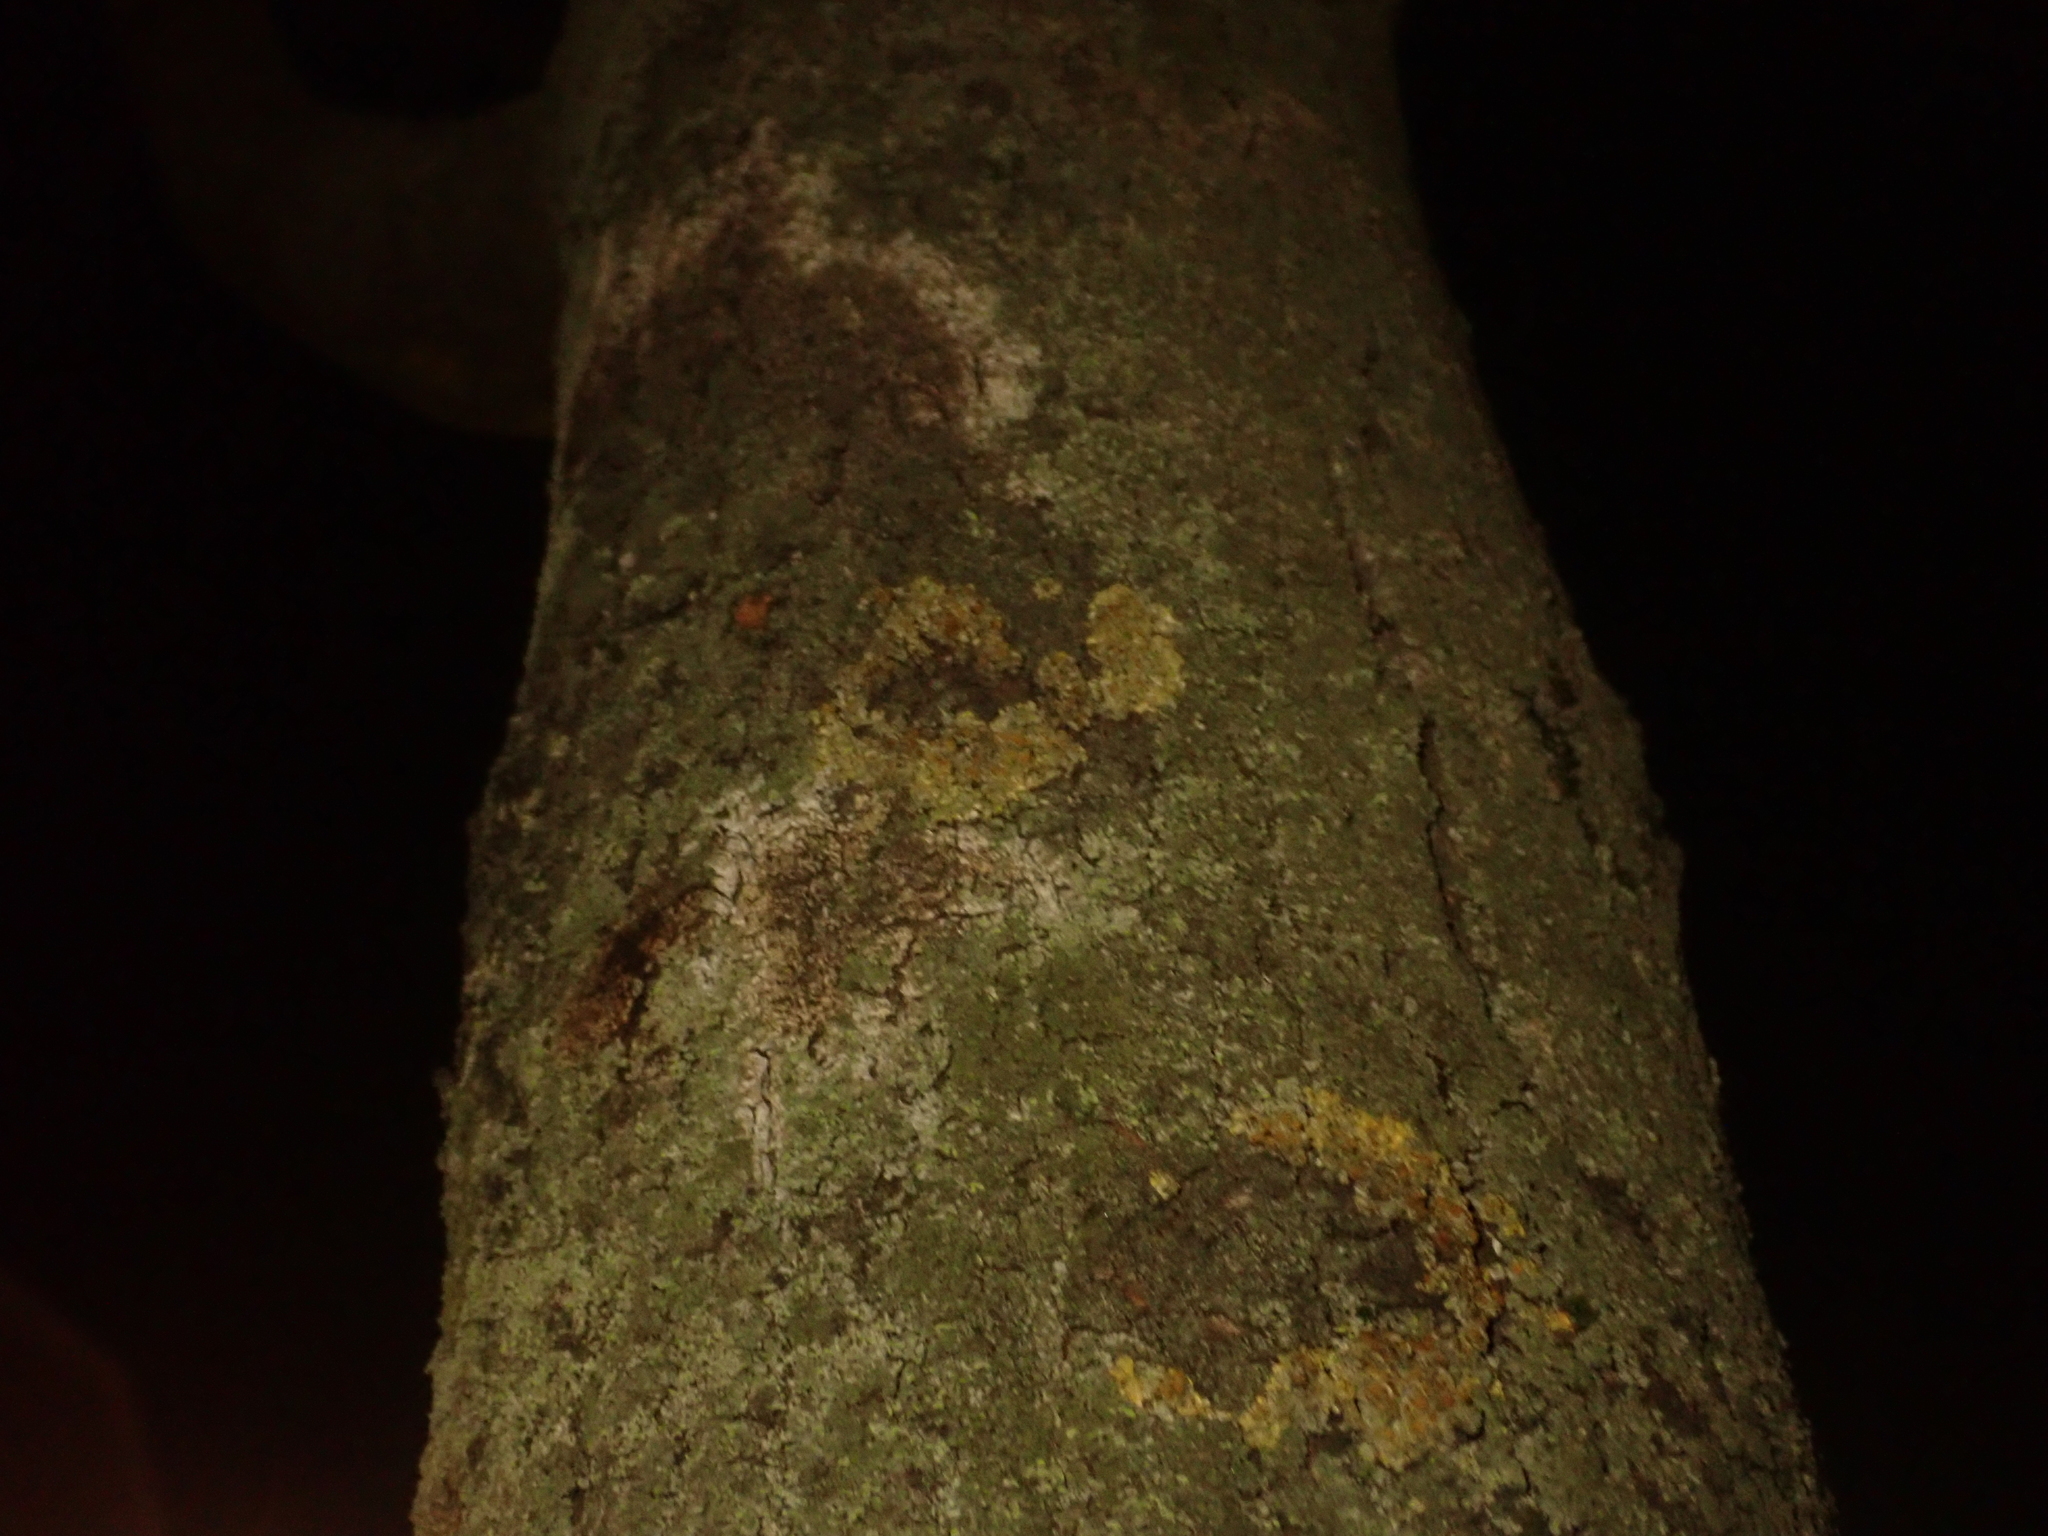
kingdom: Fungi
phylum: Basidiomycota
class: Agaricomycetes
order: Atheliales
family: Atheliaceae
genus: Athelia
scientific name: Athelia arachnoidea
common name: Candelabra duster
